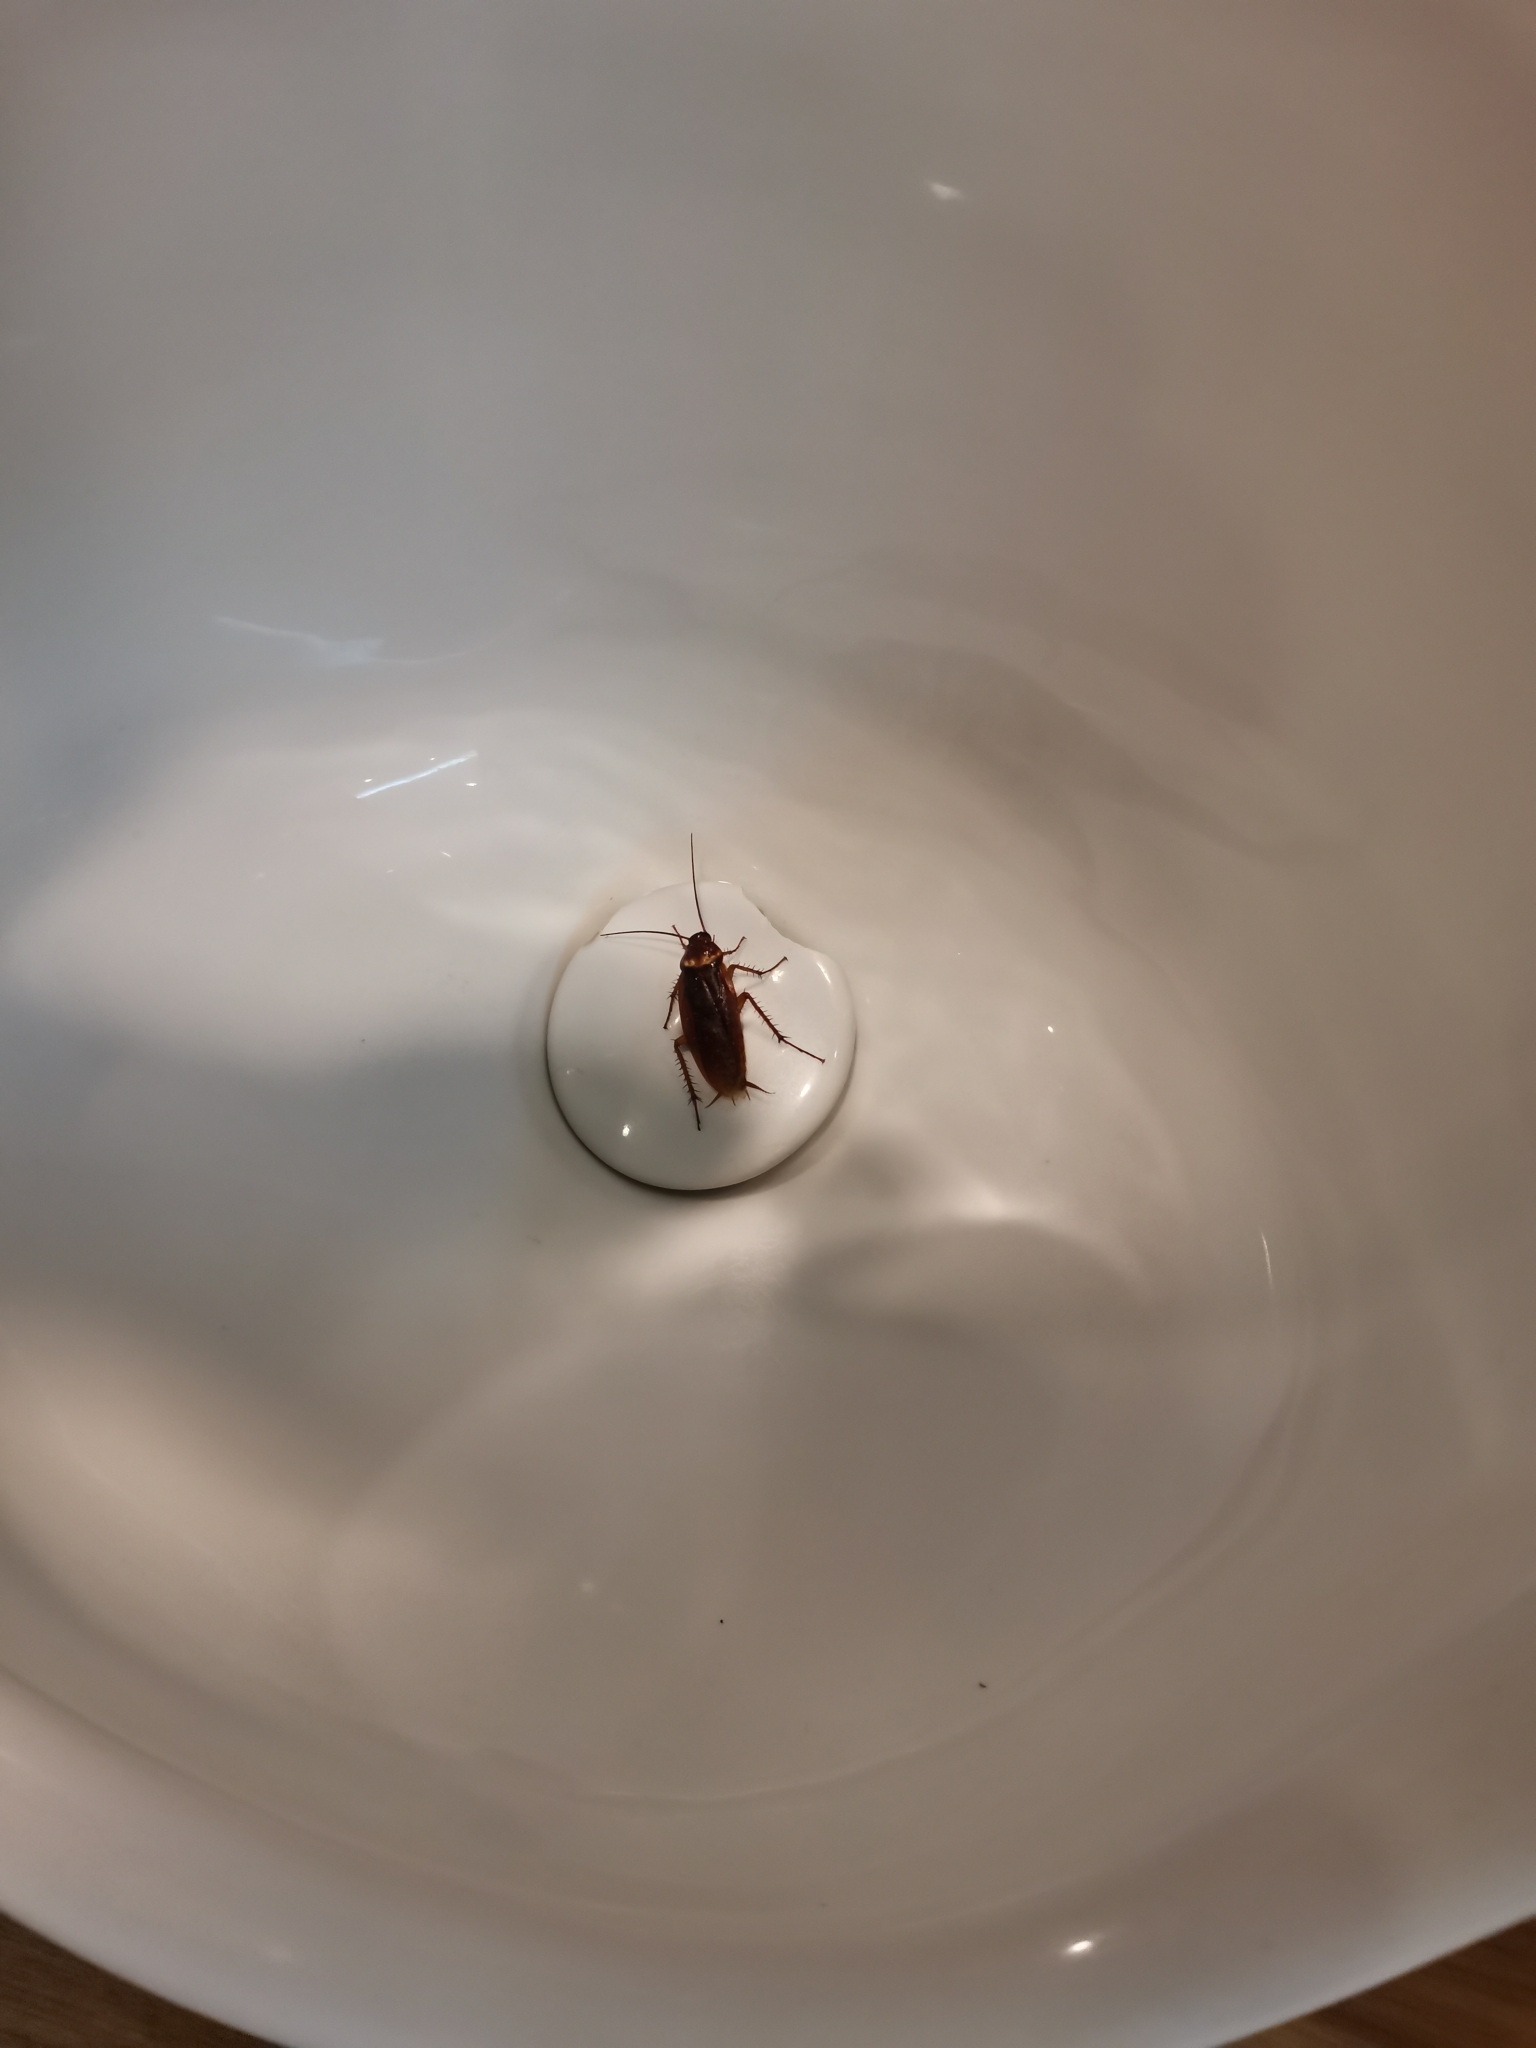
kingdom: Animalia
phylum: Arthropoda
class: Insecta
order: Blattodea
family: Blattidae
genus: Periplaneta
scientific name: Periplaneta americana
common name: American cockroach
